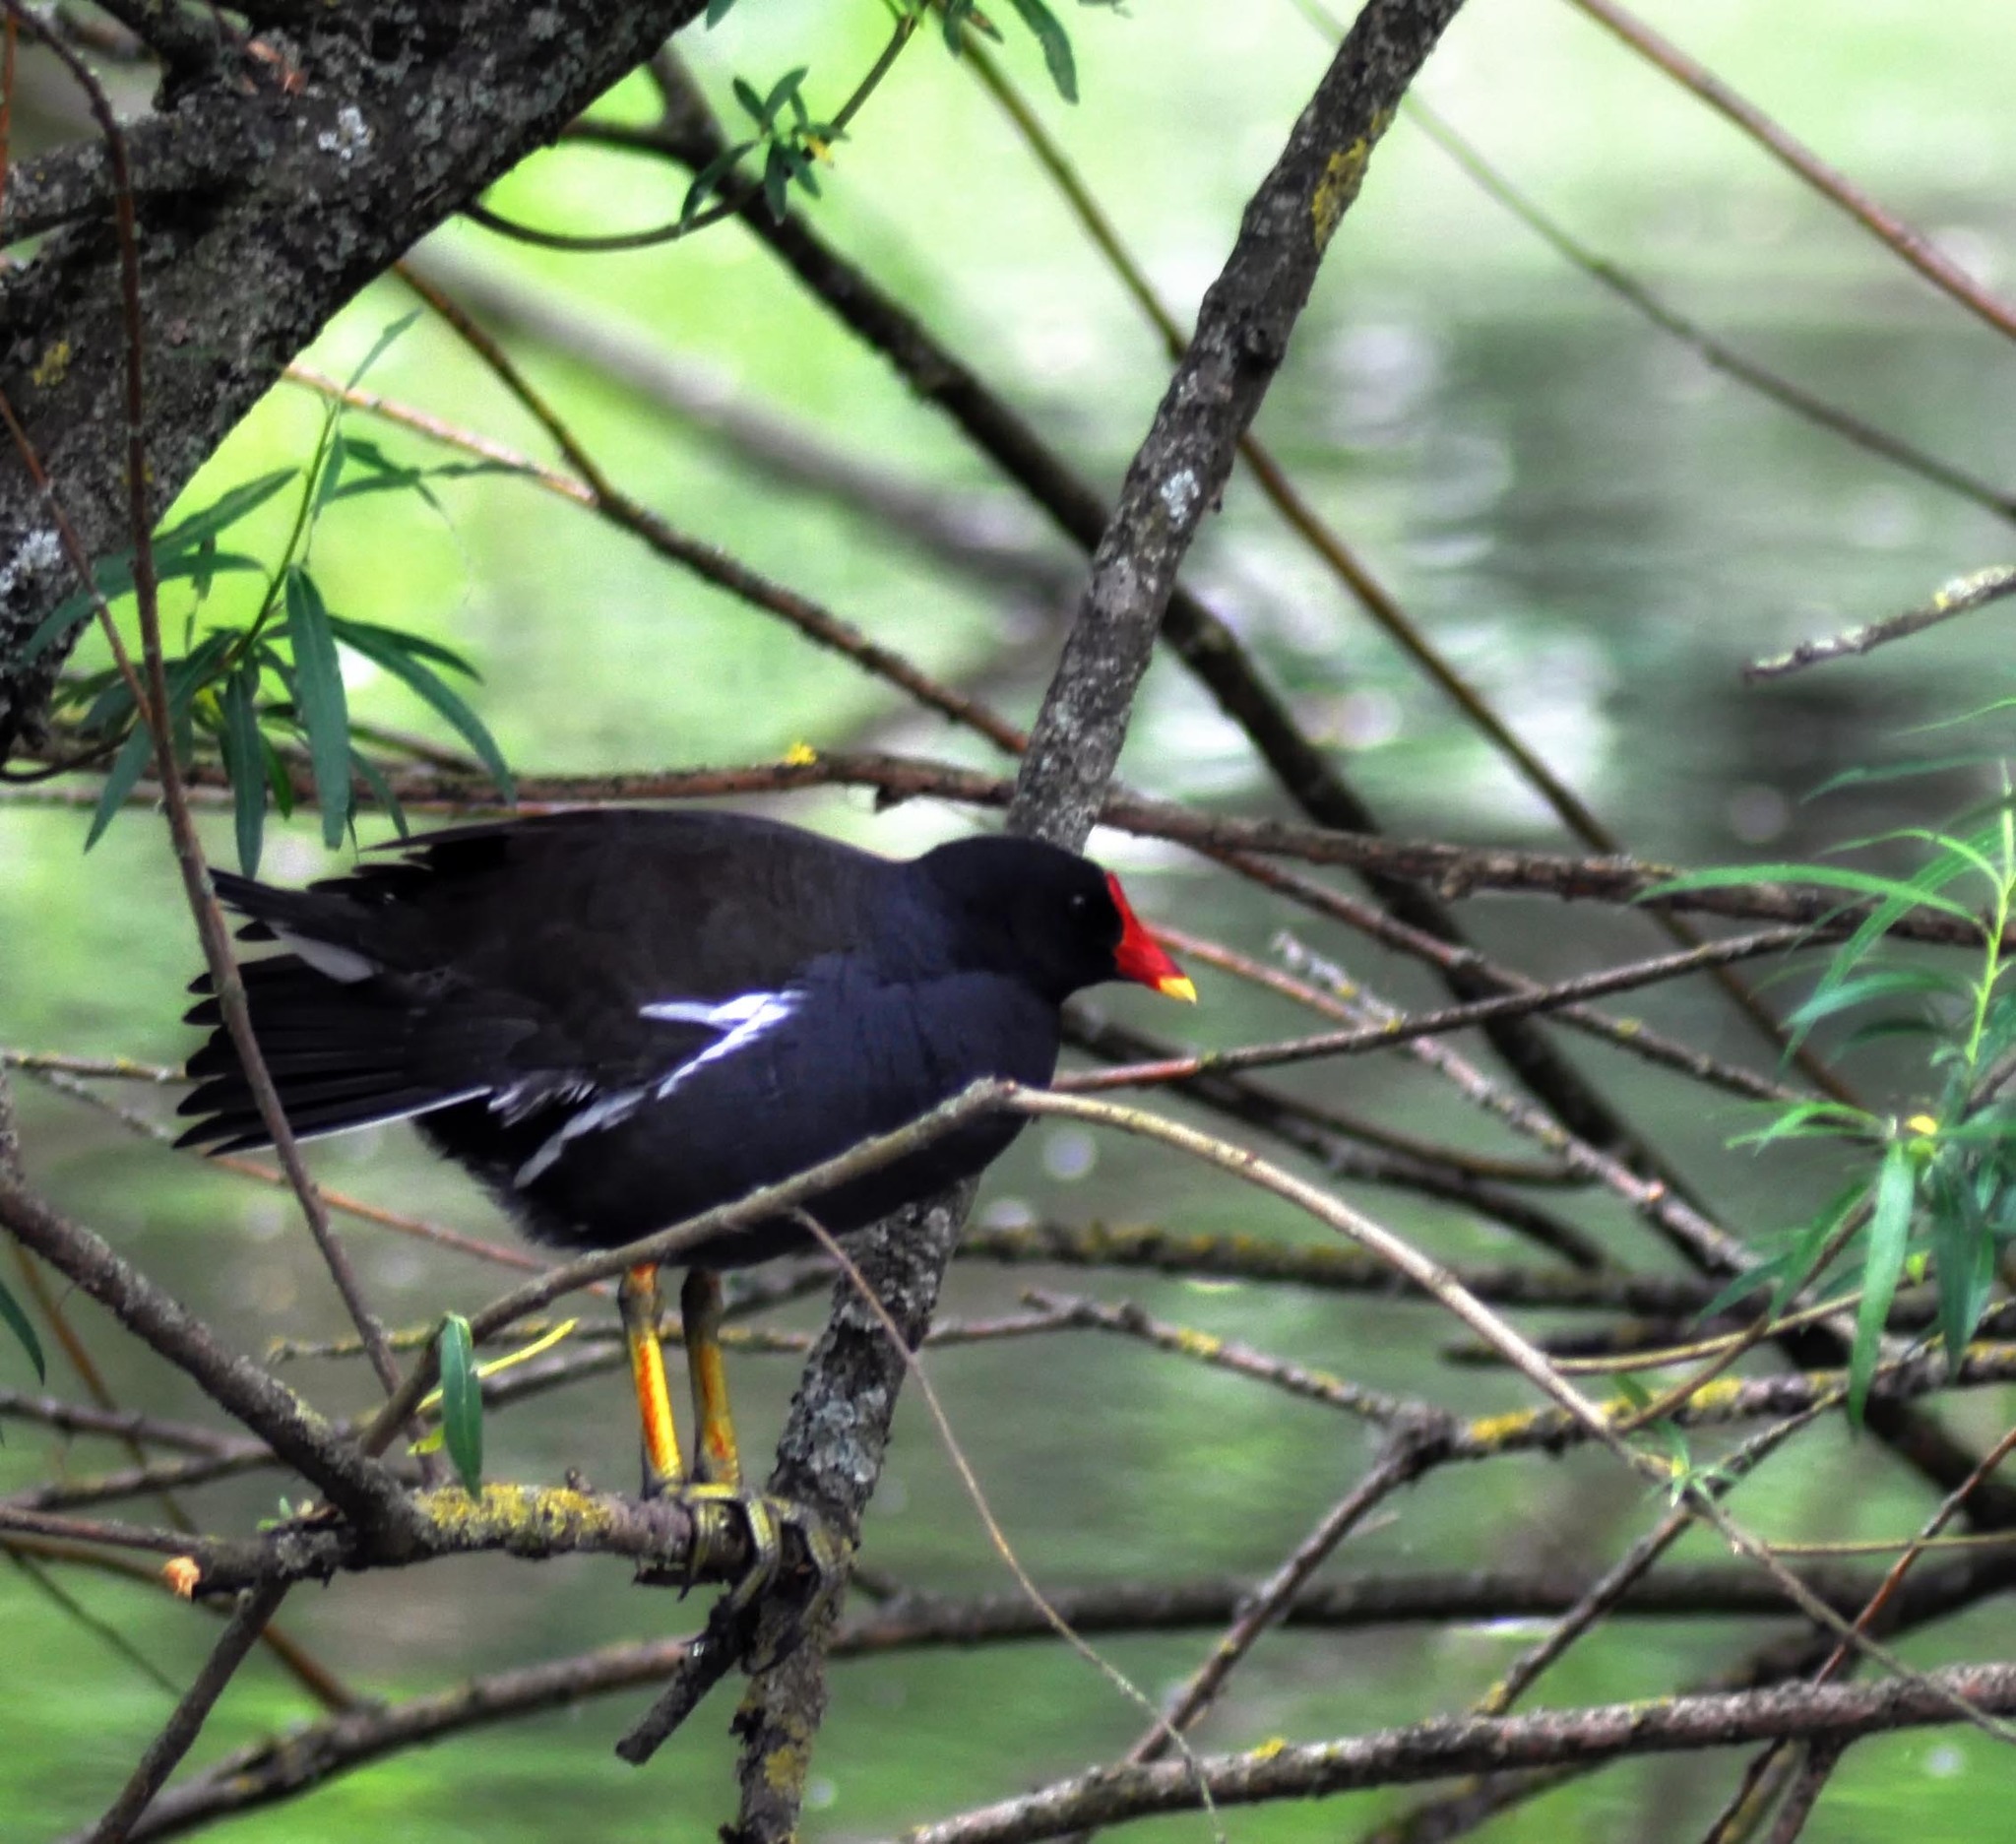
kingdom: Animalia
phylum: Chordata
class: Aves
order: Gruiformes
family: Rallidae
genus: Gallinula
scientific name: Gallinula chloropus
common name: Common moorhen
